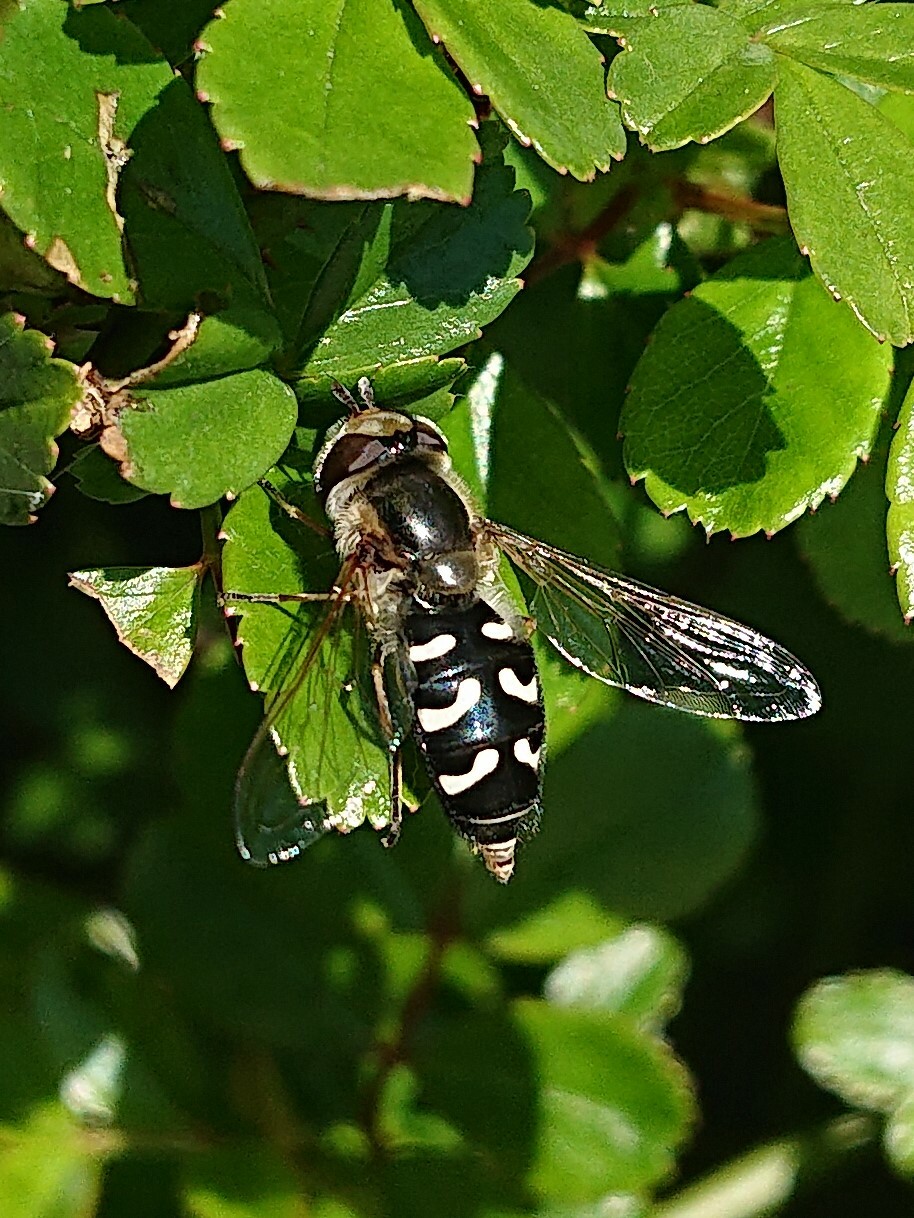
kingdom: Animalia
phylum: Arthropoda
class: Insecta
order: Diptera
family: Syrphidae
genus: Scaeva
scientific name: Scaeva pyrastri
